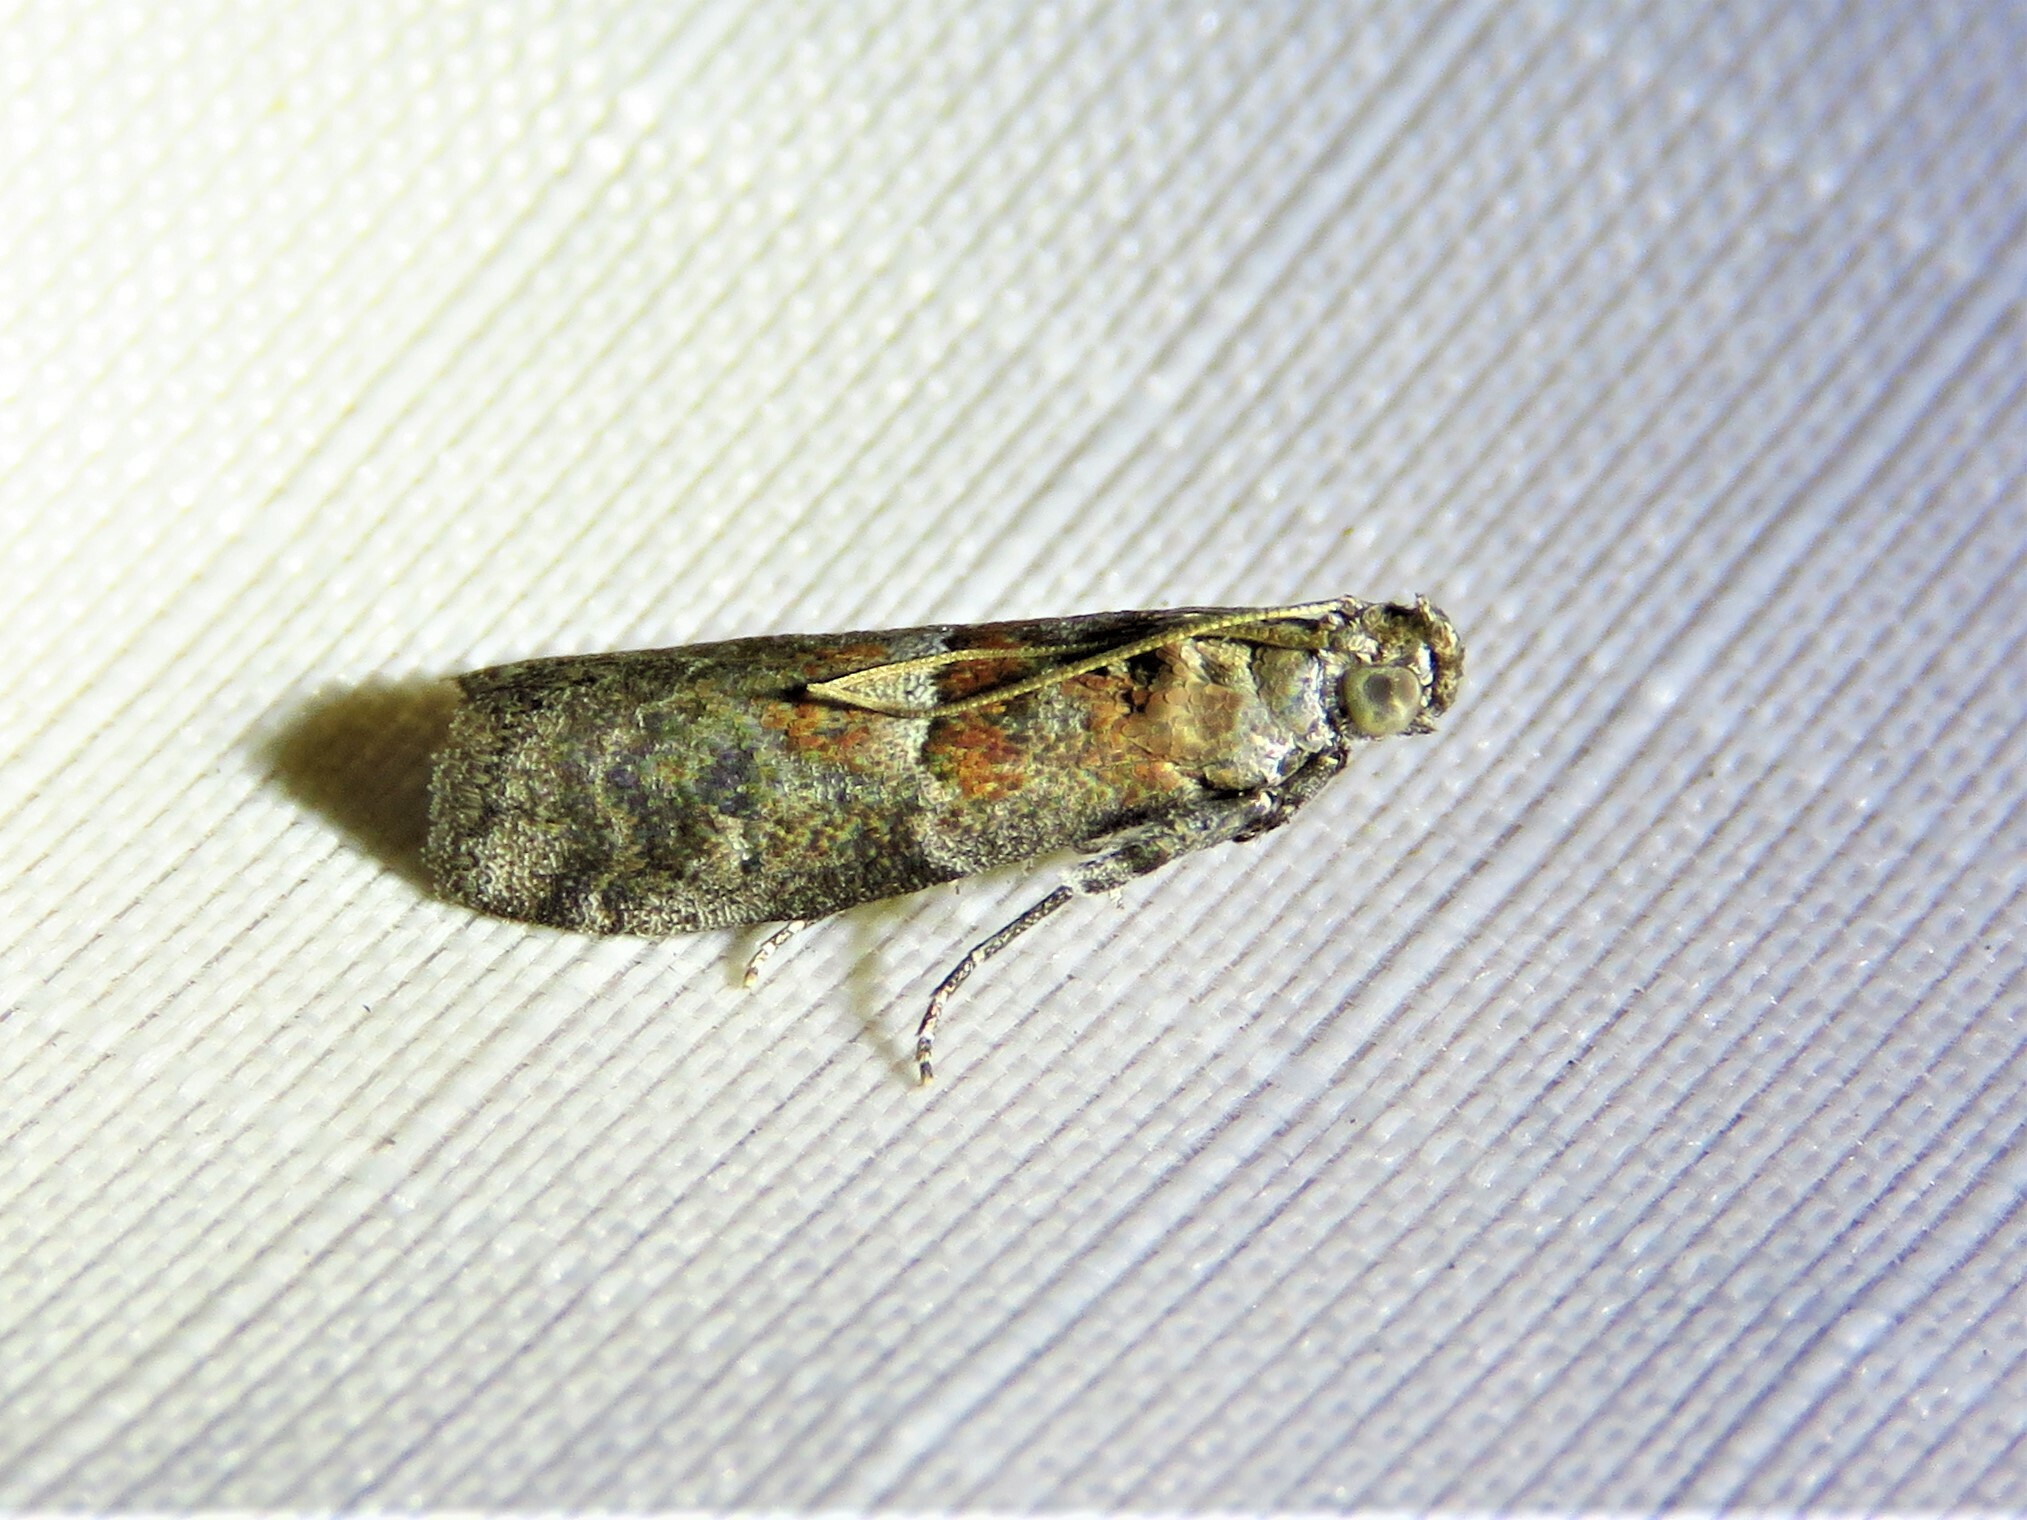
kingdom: Animalia
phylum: Arthropoda
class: Insecta
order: Lepidoptera
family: Pyralidae
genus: Salebriaria
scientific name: Salebriaria pumilella
